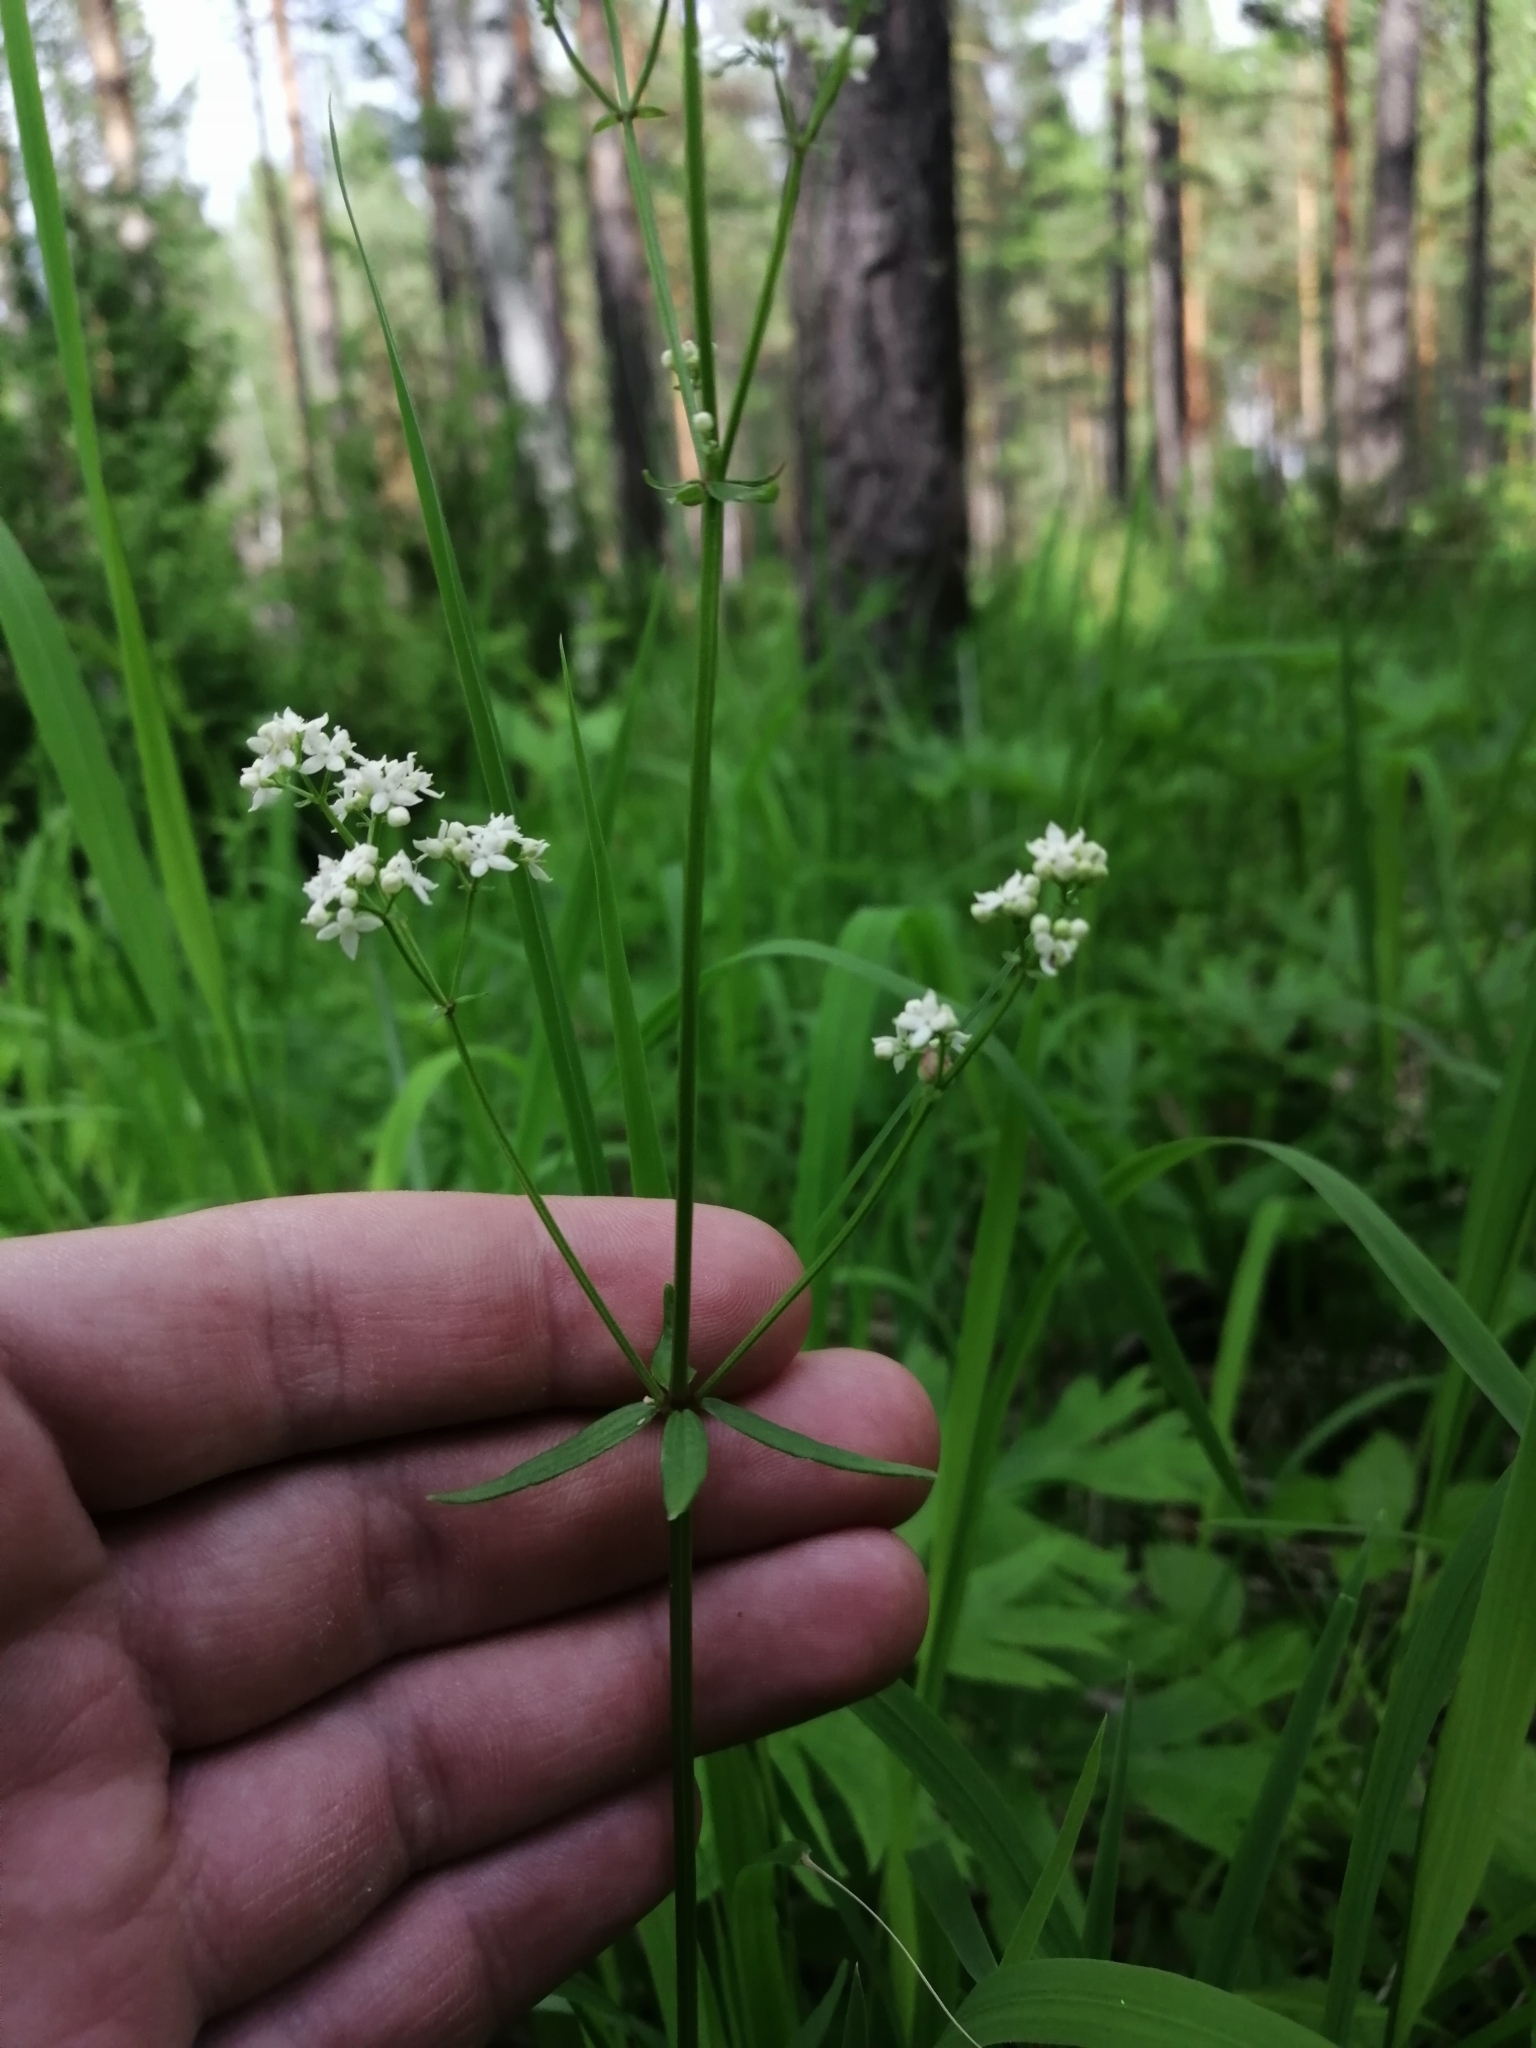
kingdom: Plantae
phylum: Tracheophyta
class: Magnoliopsida
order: Gentianales
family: Rubiaceae
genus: Galium
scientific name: Galium boreale
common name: Northern bedstraw
